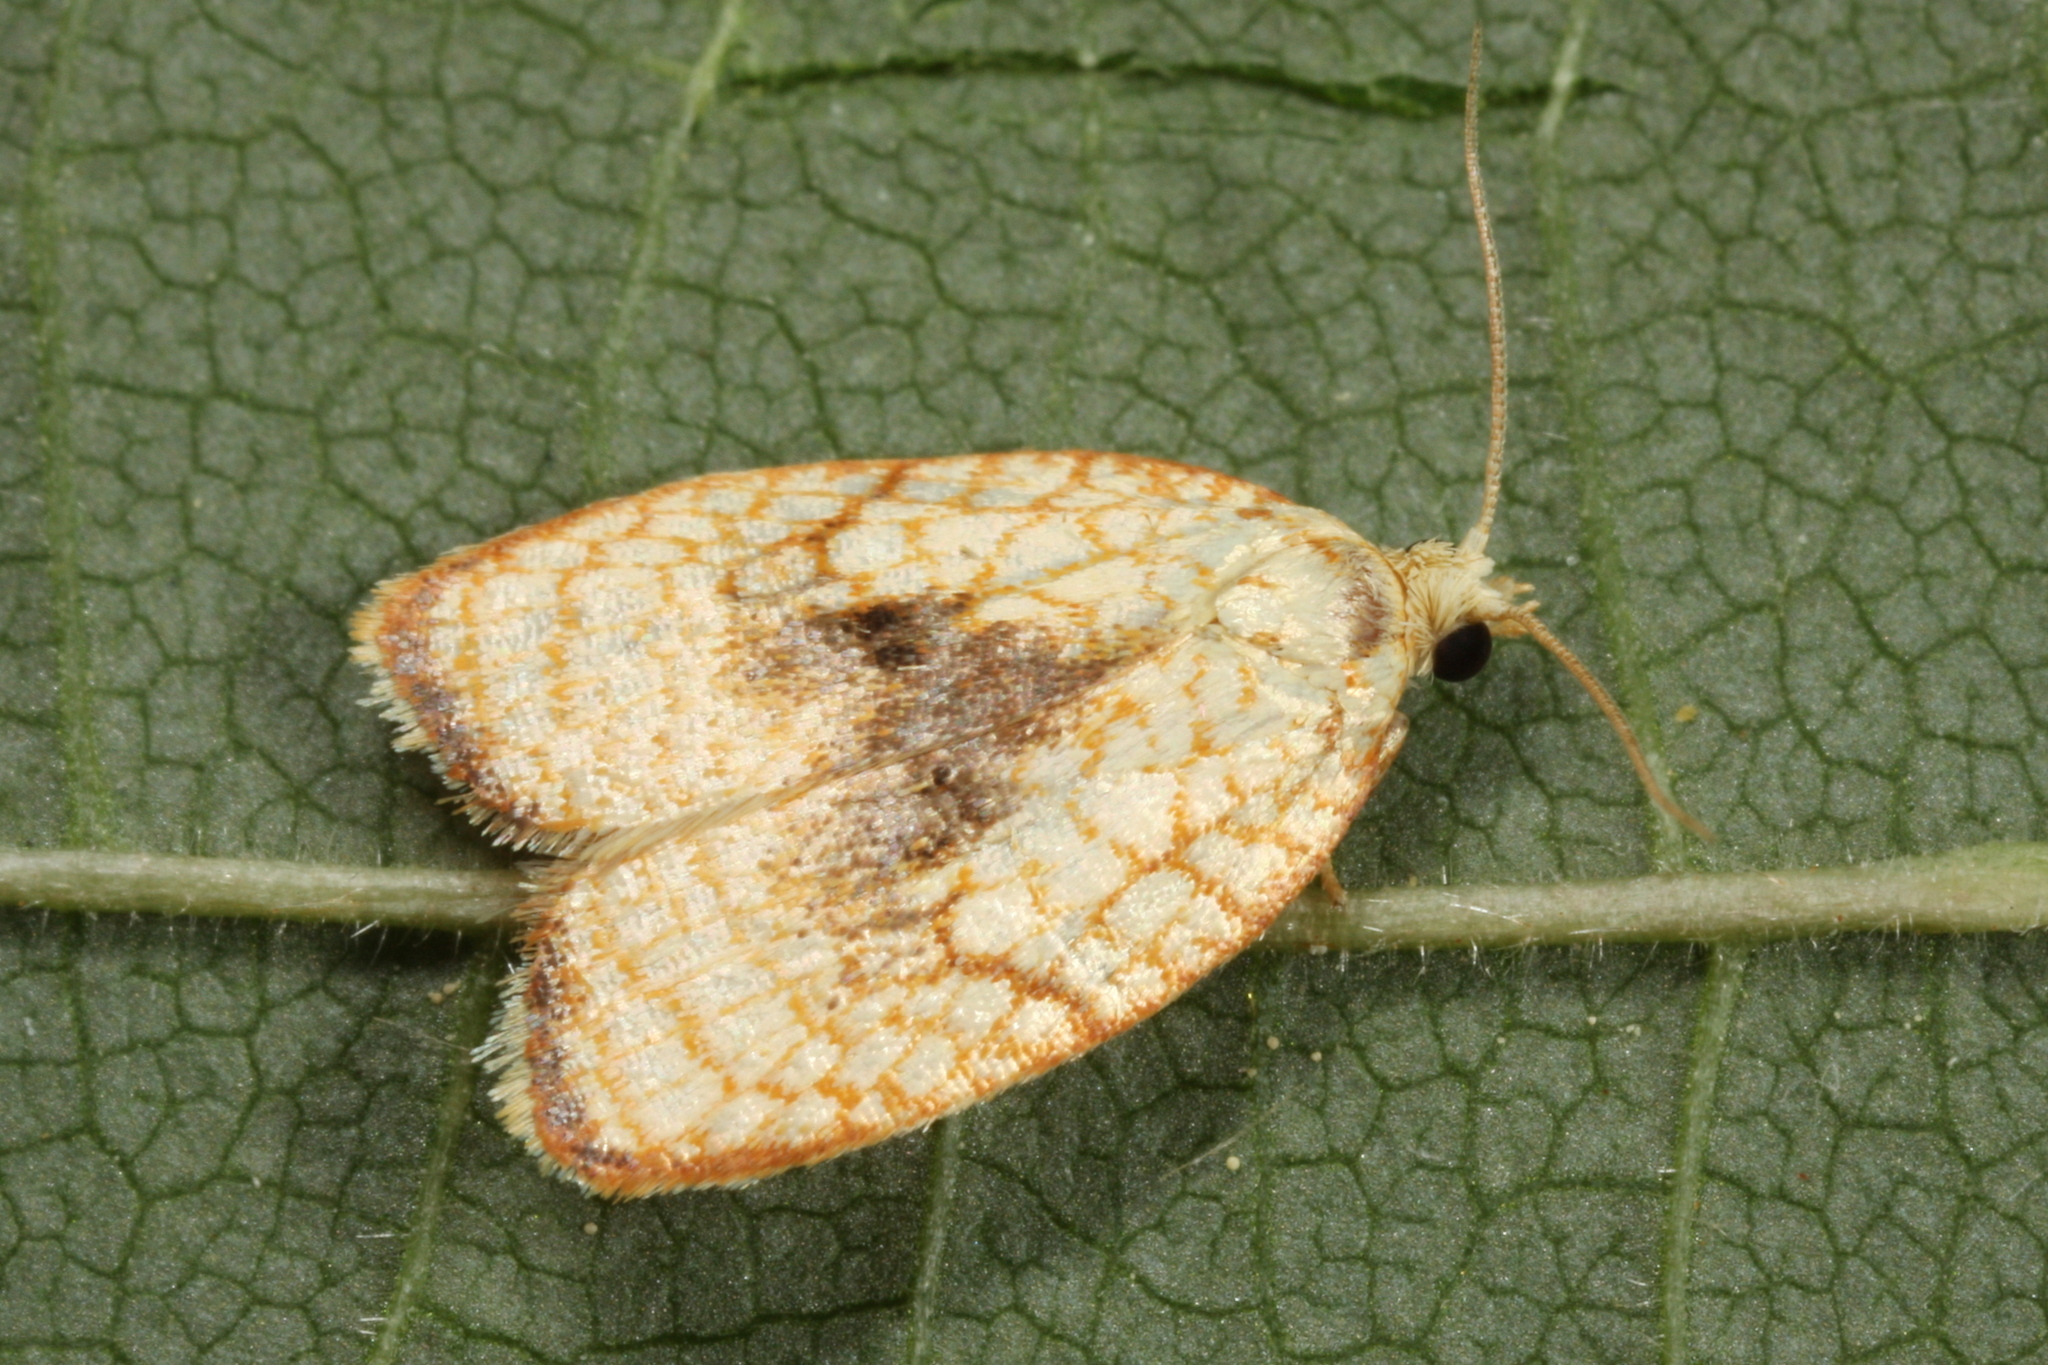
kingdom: Animalia
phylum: Arthropoda
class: Insecta
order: Lepidoptera
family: Tortricidae
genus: Acleris
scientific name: Acleris forsskaleana
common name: Maple button
